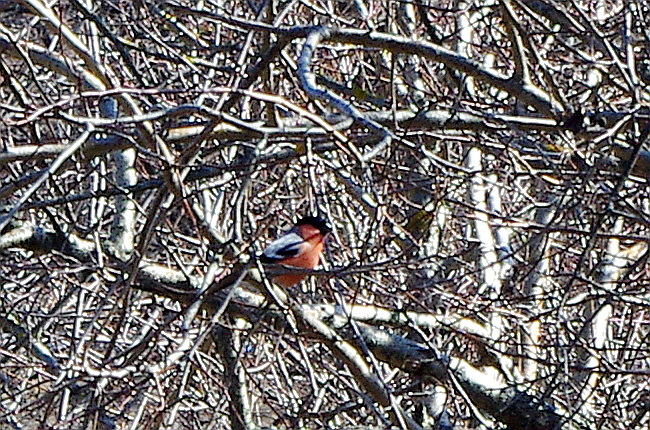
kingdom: Animalia
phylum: Chordata
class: Aves
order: Passeriformes
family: Fringillidae
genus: Pyrrhula
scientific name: Pyrrhula pyrrhula
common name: Eurasian bullfinch
